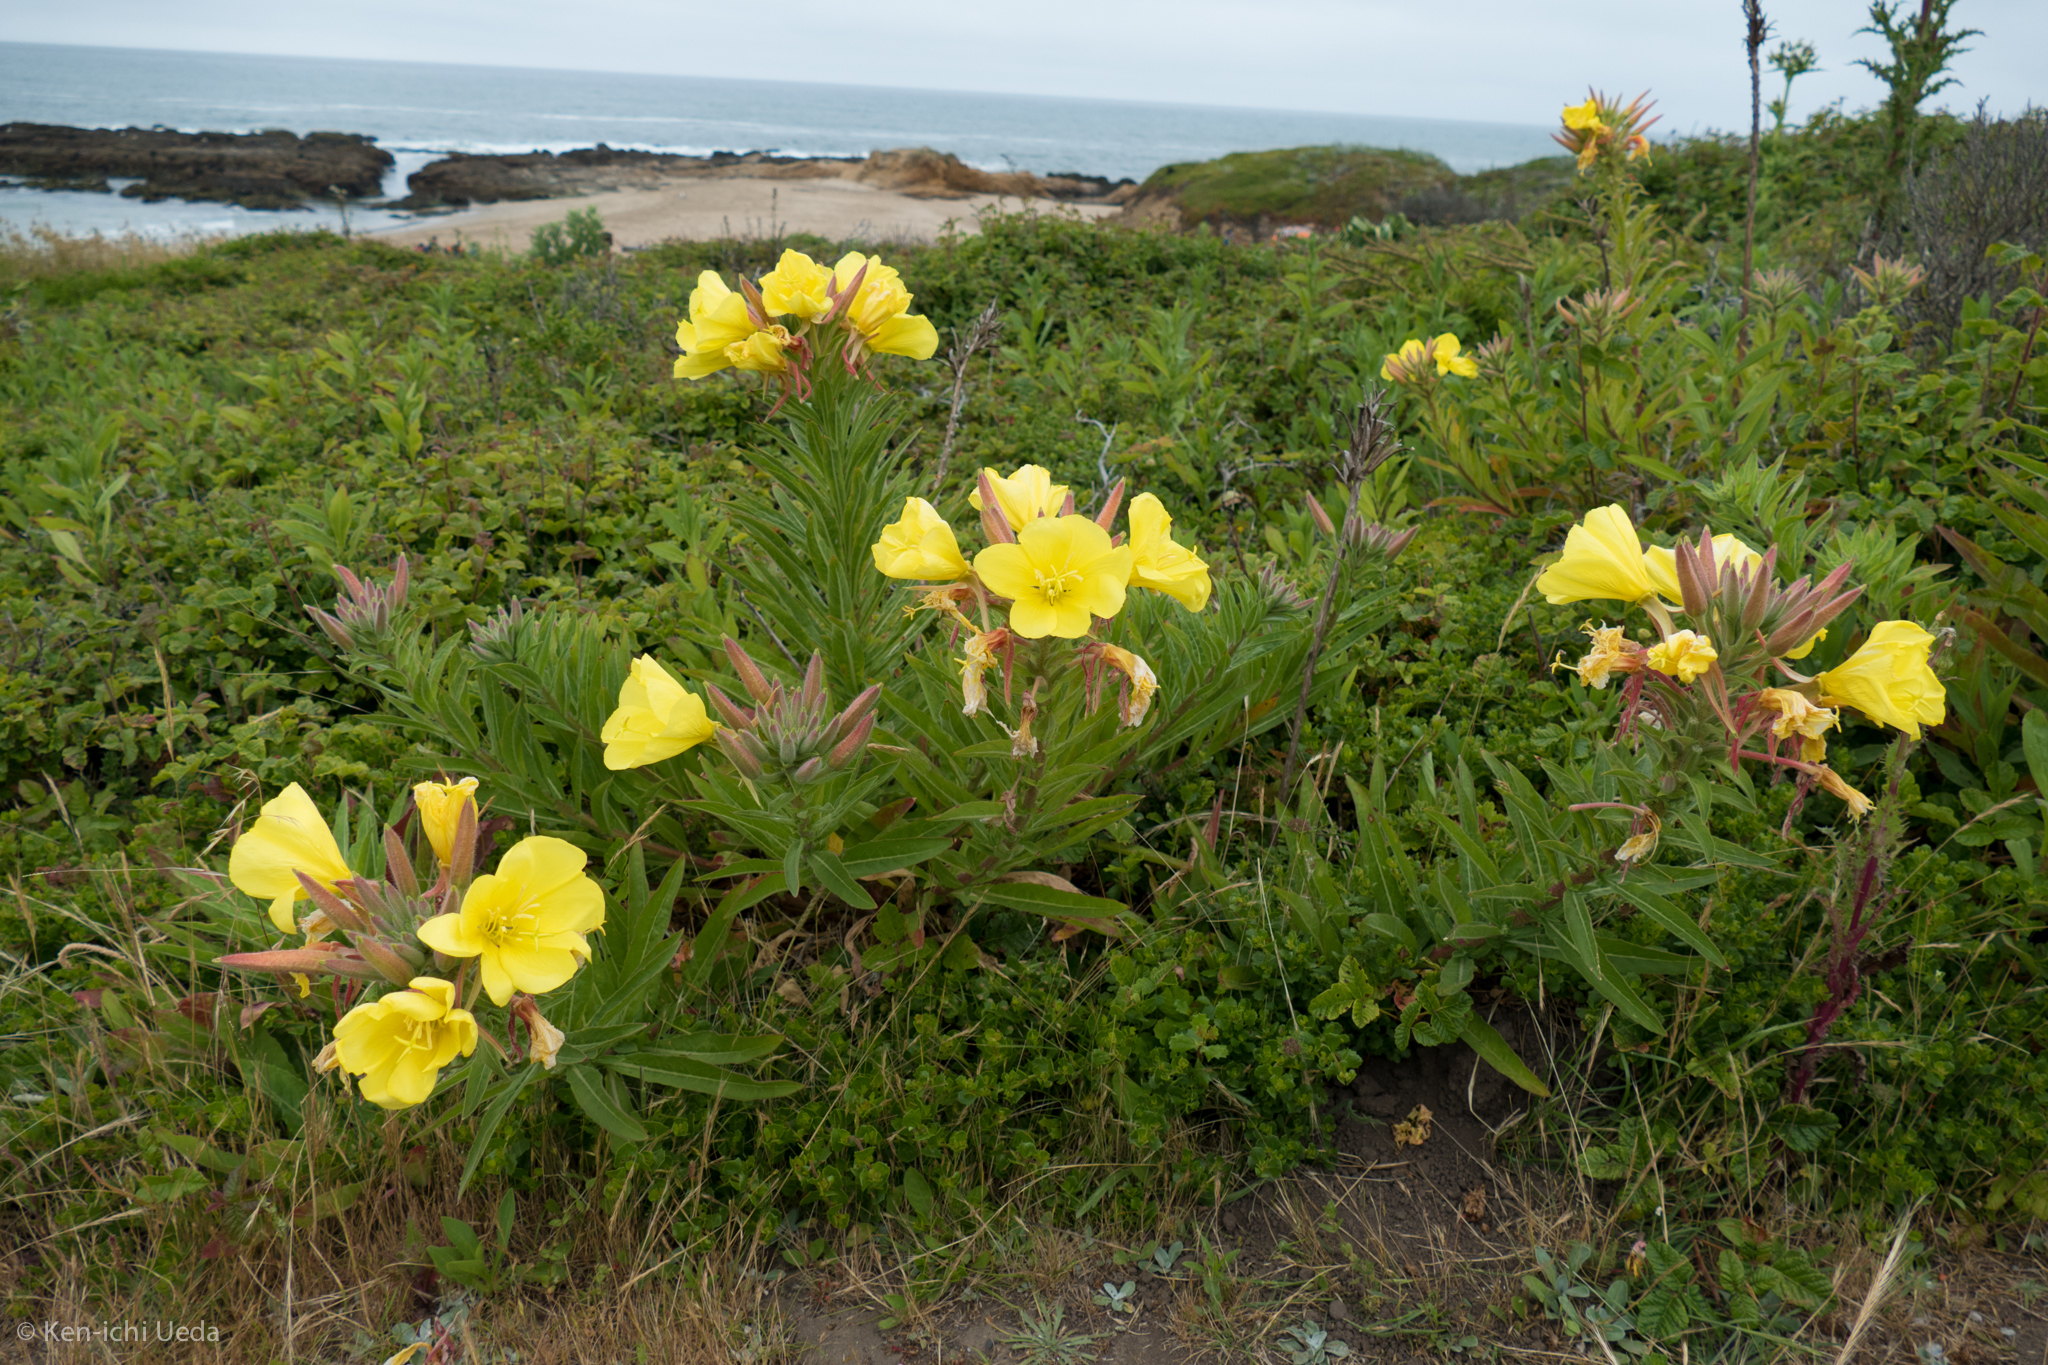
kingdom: Plantae
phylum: Tracheophyta
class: Magnoliopsida
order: Myrtales
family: Onagraceae
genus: Oenothera
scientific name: Oenothera elata
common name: Hooker's evening-primrose
